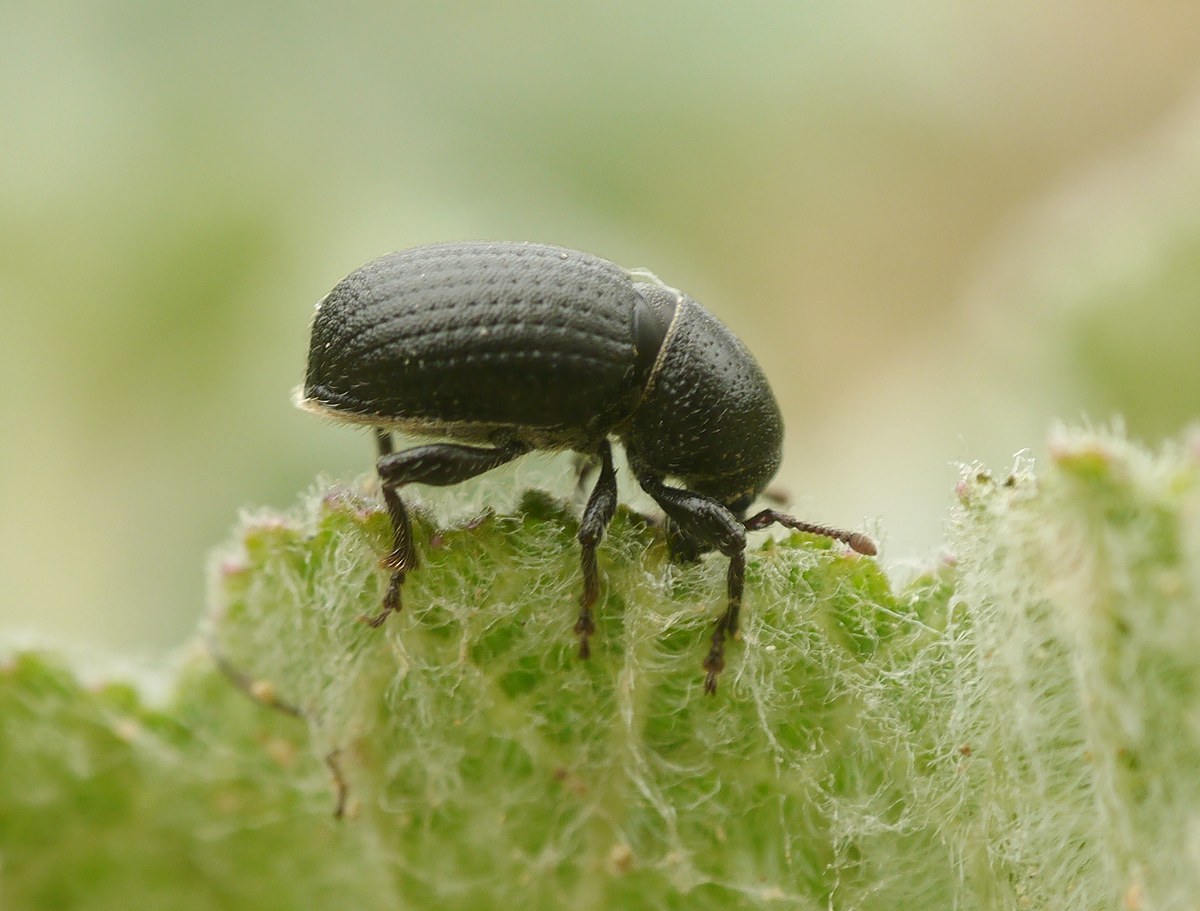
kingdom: Animalia
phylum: Arthropoda
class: Insecta
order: Coleoptera
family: Curculionidae
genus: Psallidium
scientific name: Psallidium maxillosum
